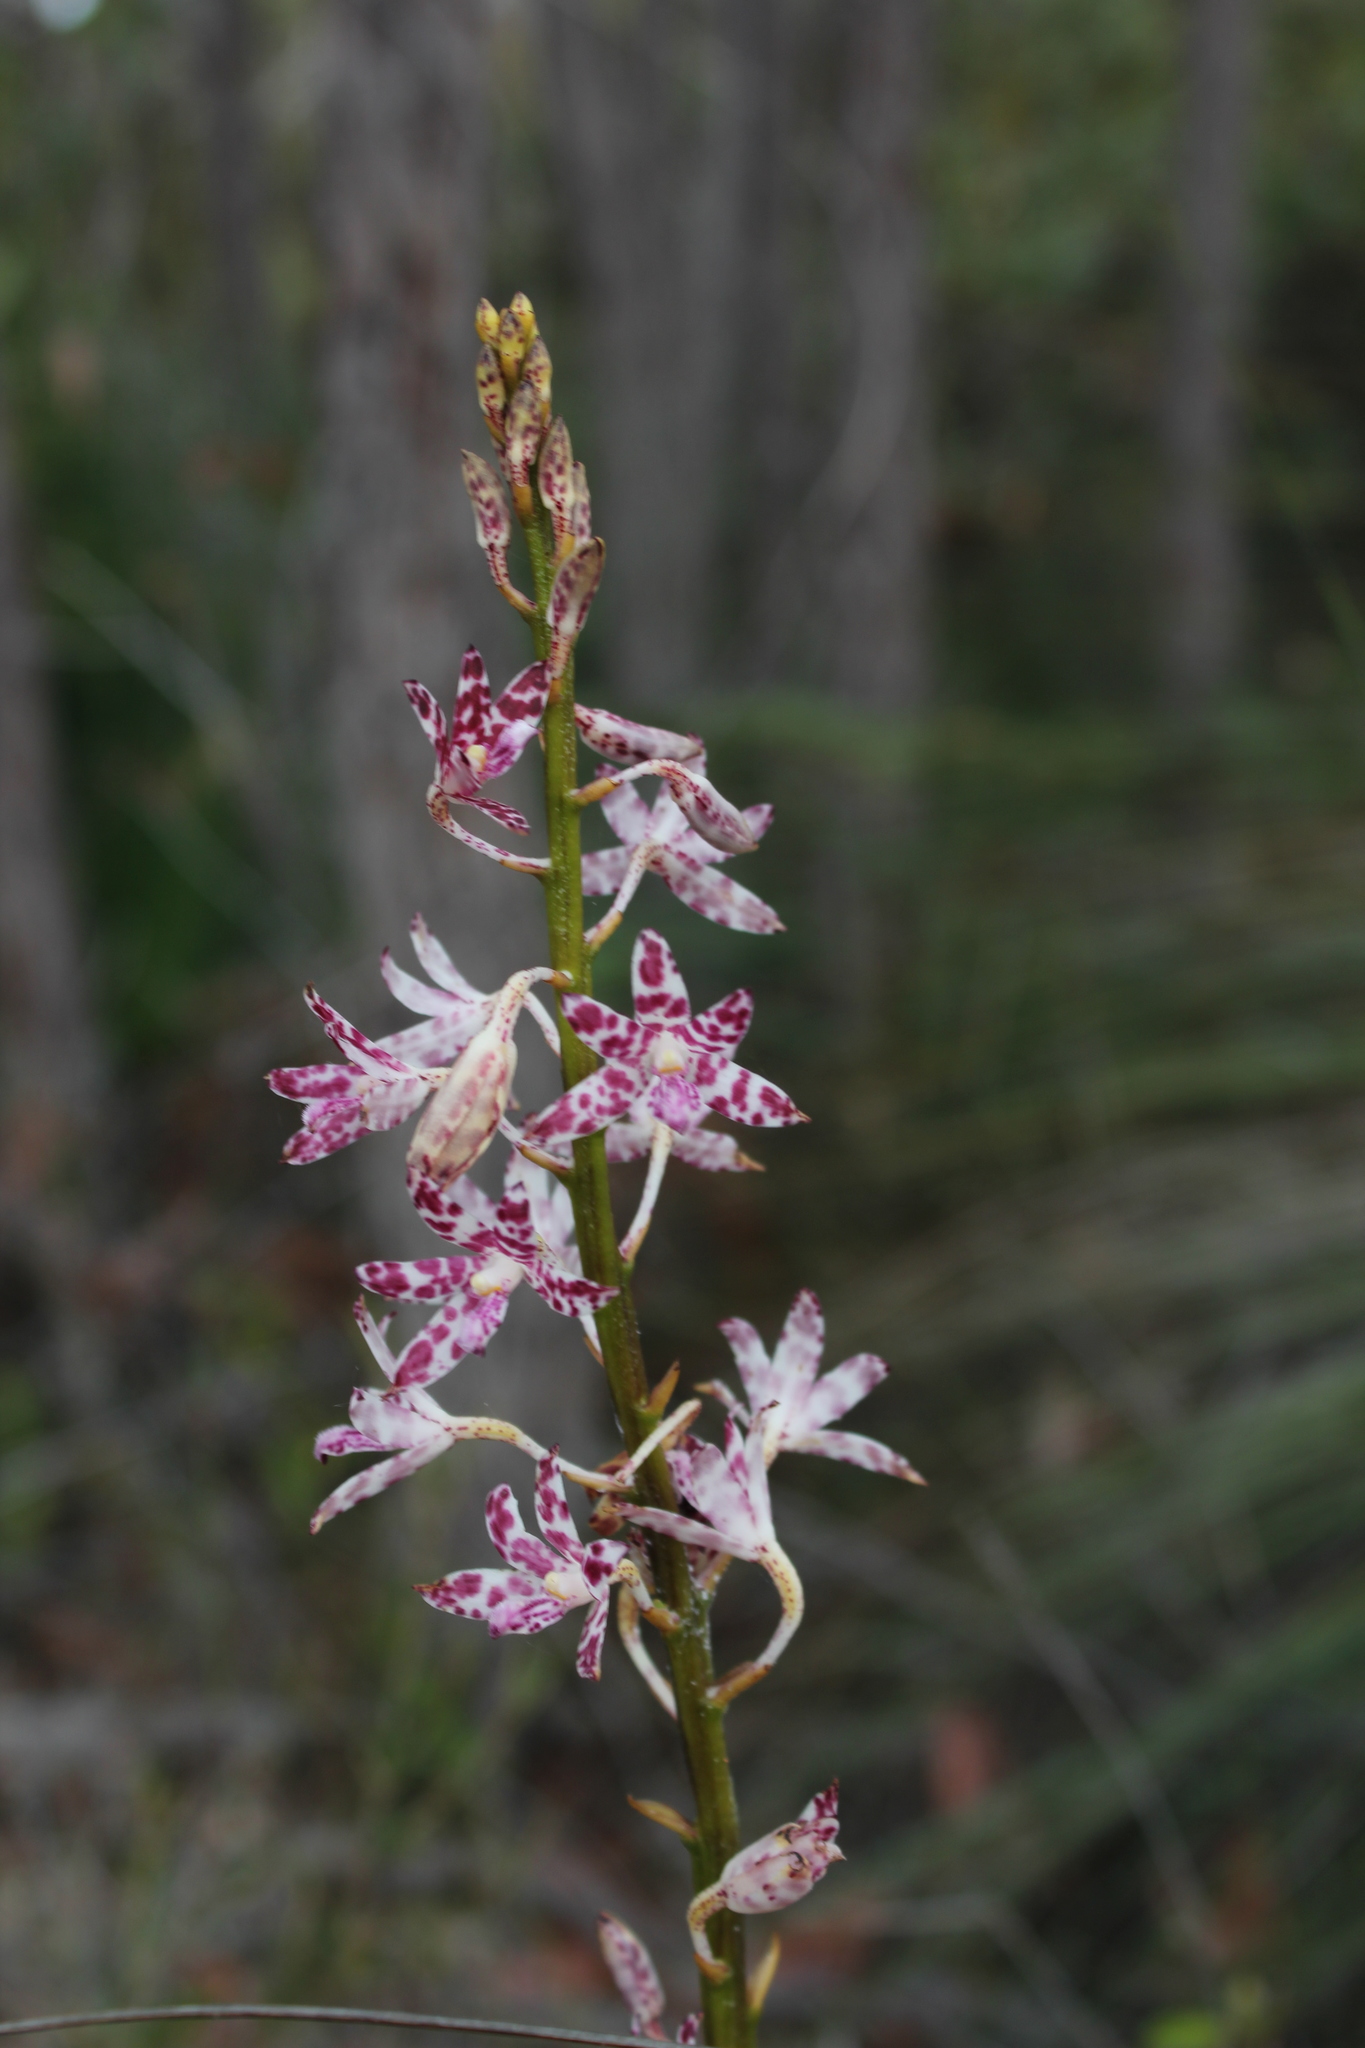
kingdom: Plantae
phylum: Tracheophyta
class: Liliopsida
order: Asparagales
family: Orchidaceae
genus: Dipodium
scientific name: Dipodium variegatum
